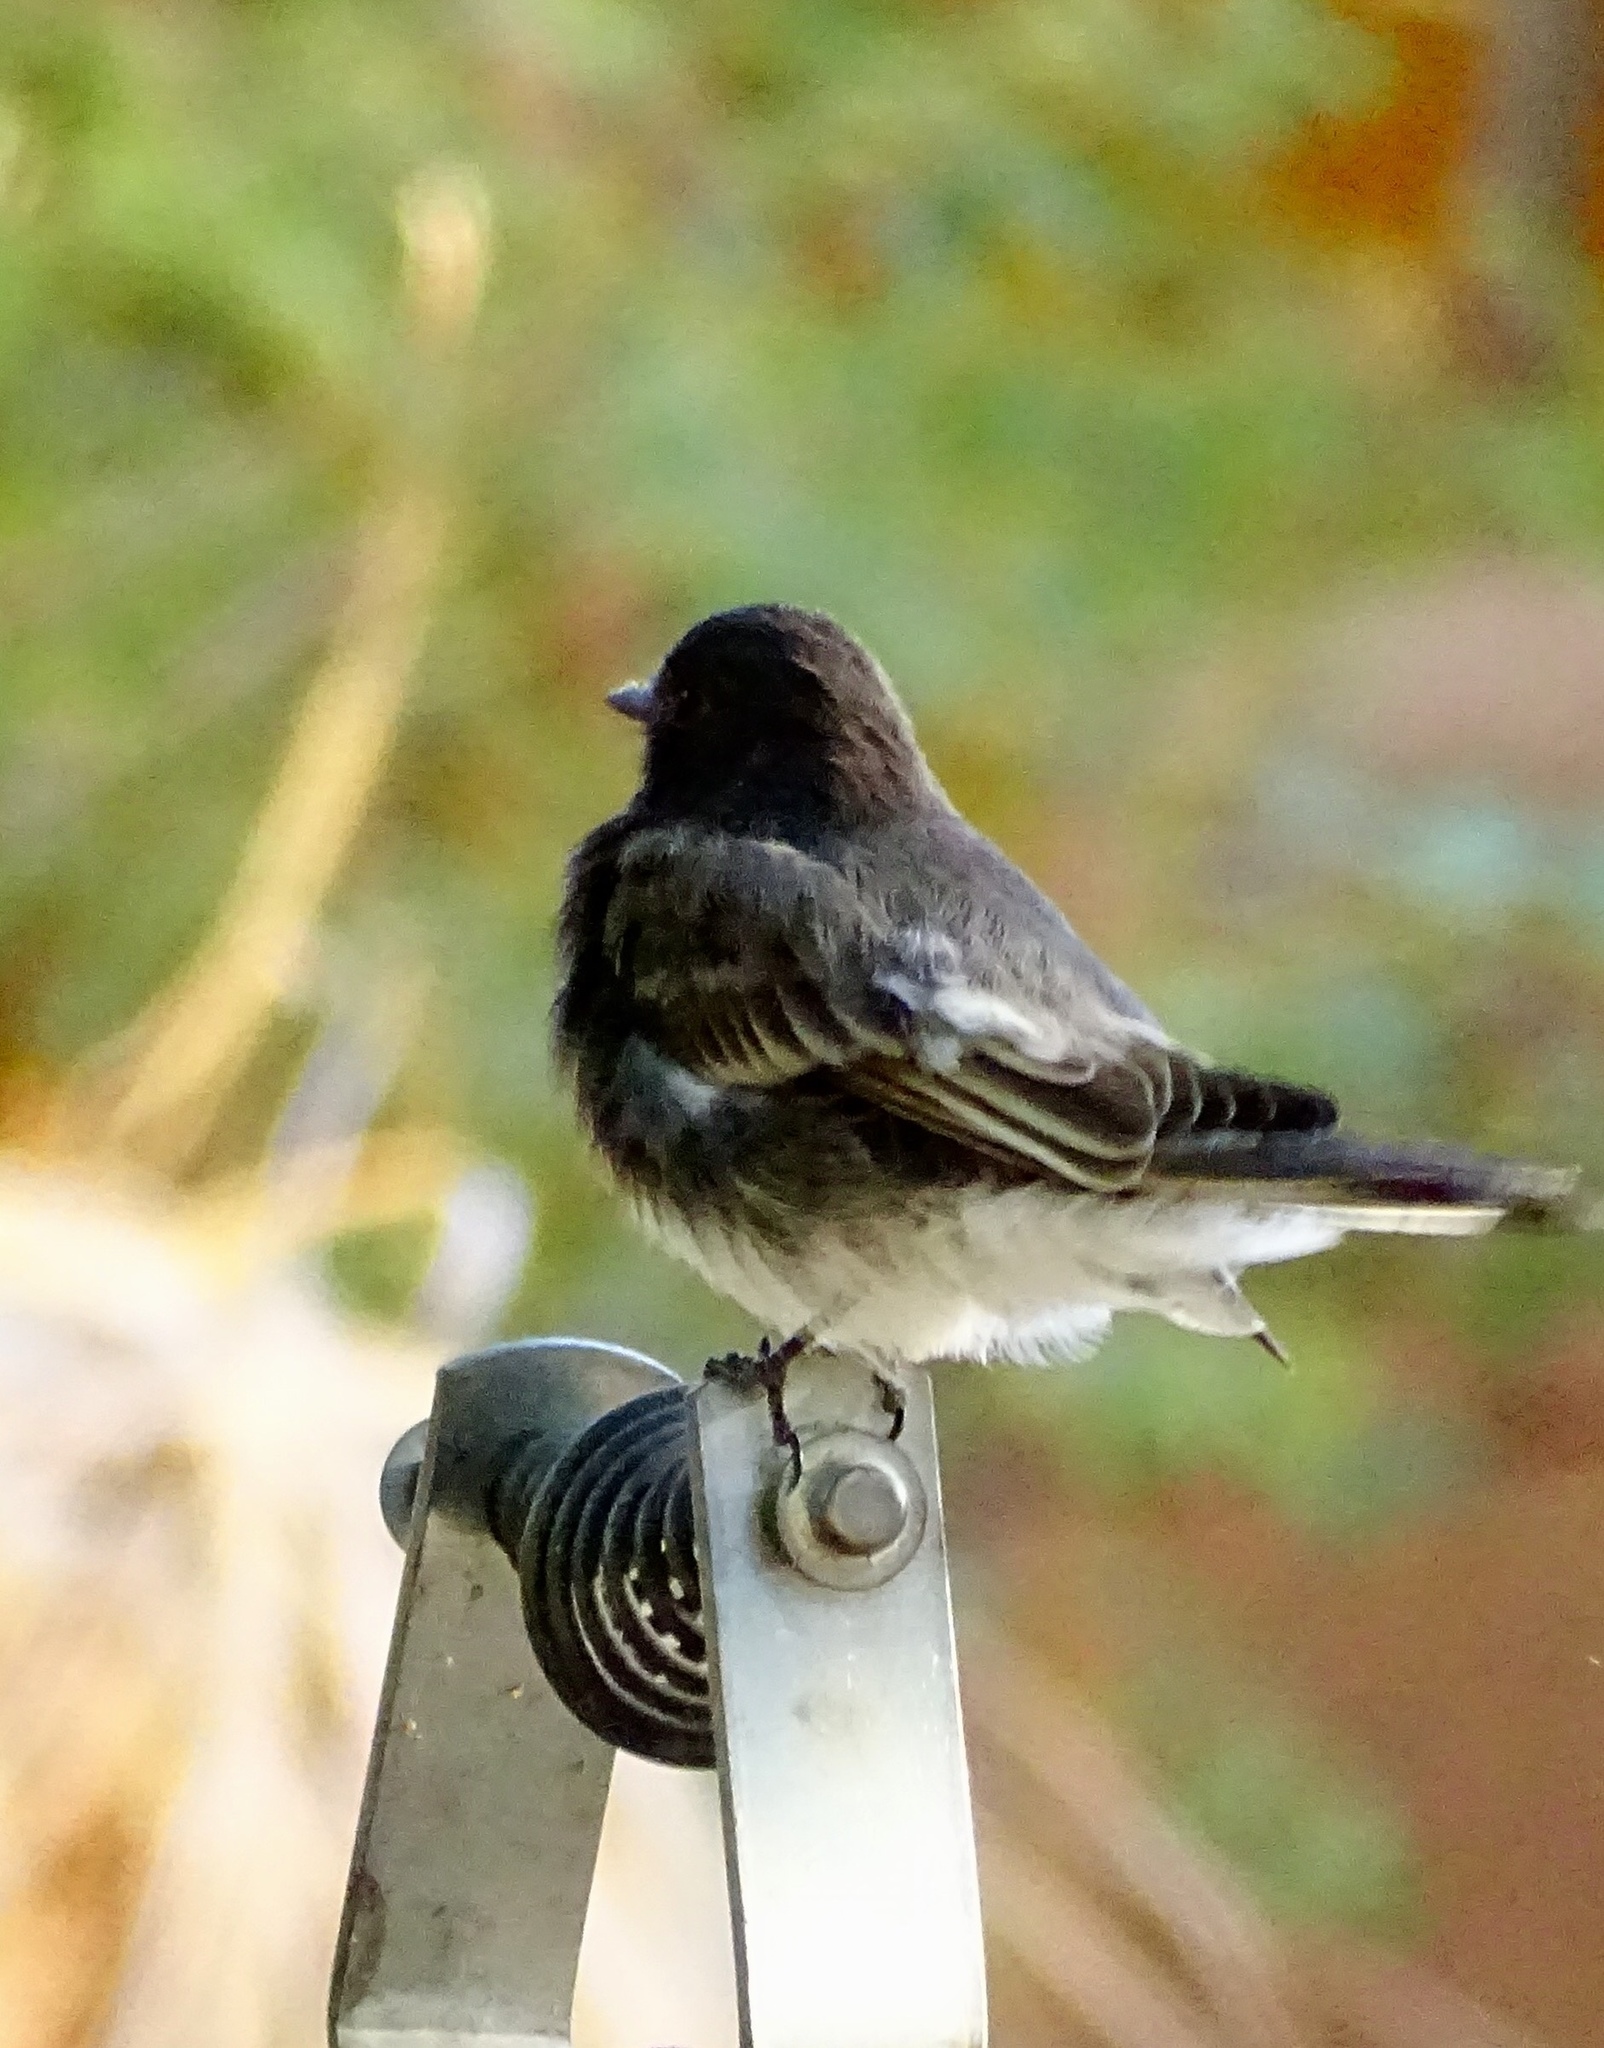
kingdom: Animalia
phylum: Chordata
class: Aves
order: Passeriformes
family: Tyrannidae
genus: Sayornis
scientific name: Sayornis nigricans
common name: Black phoebe
